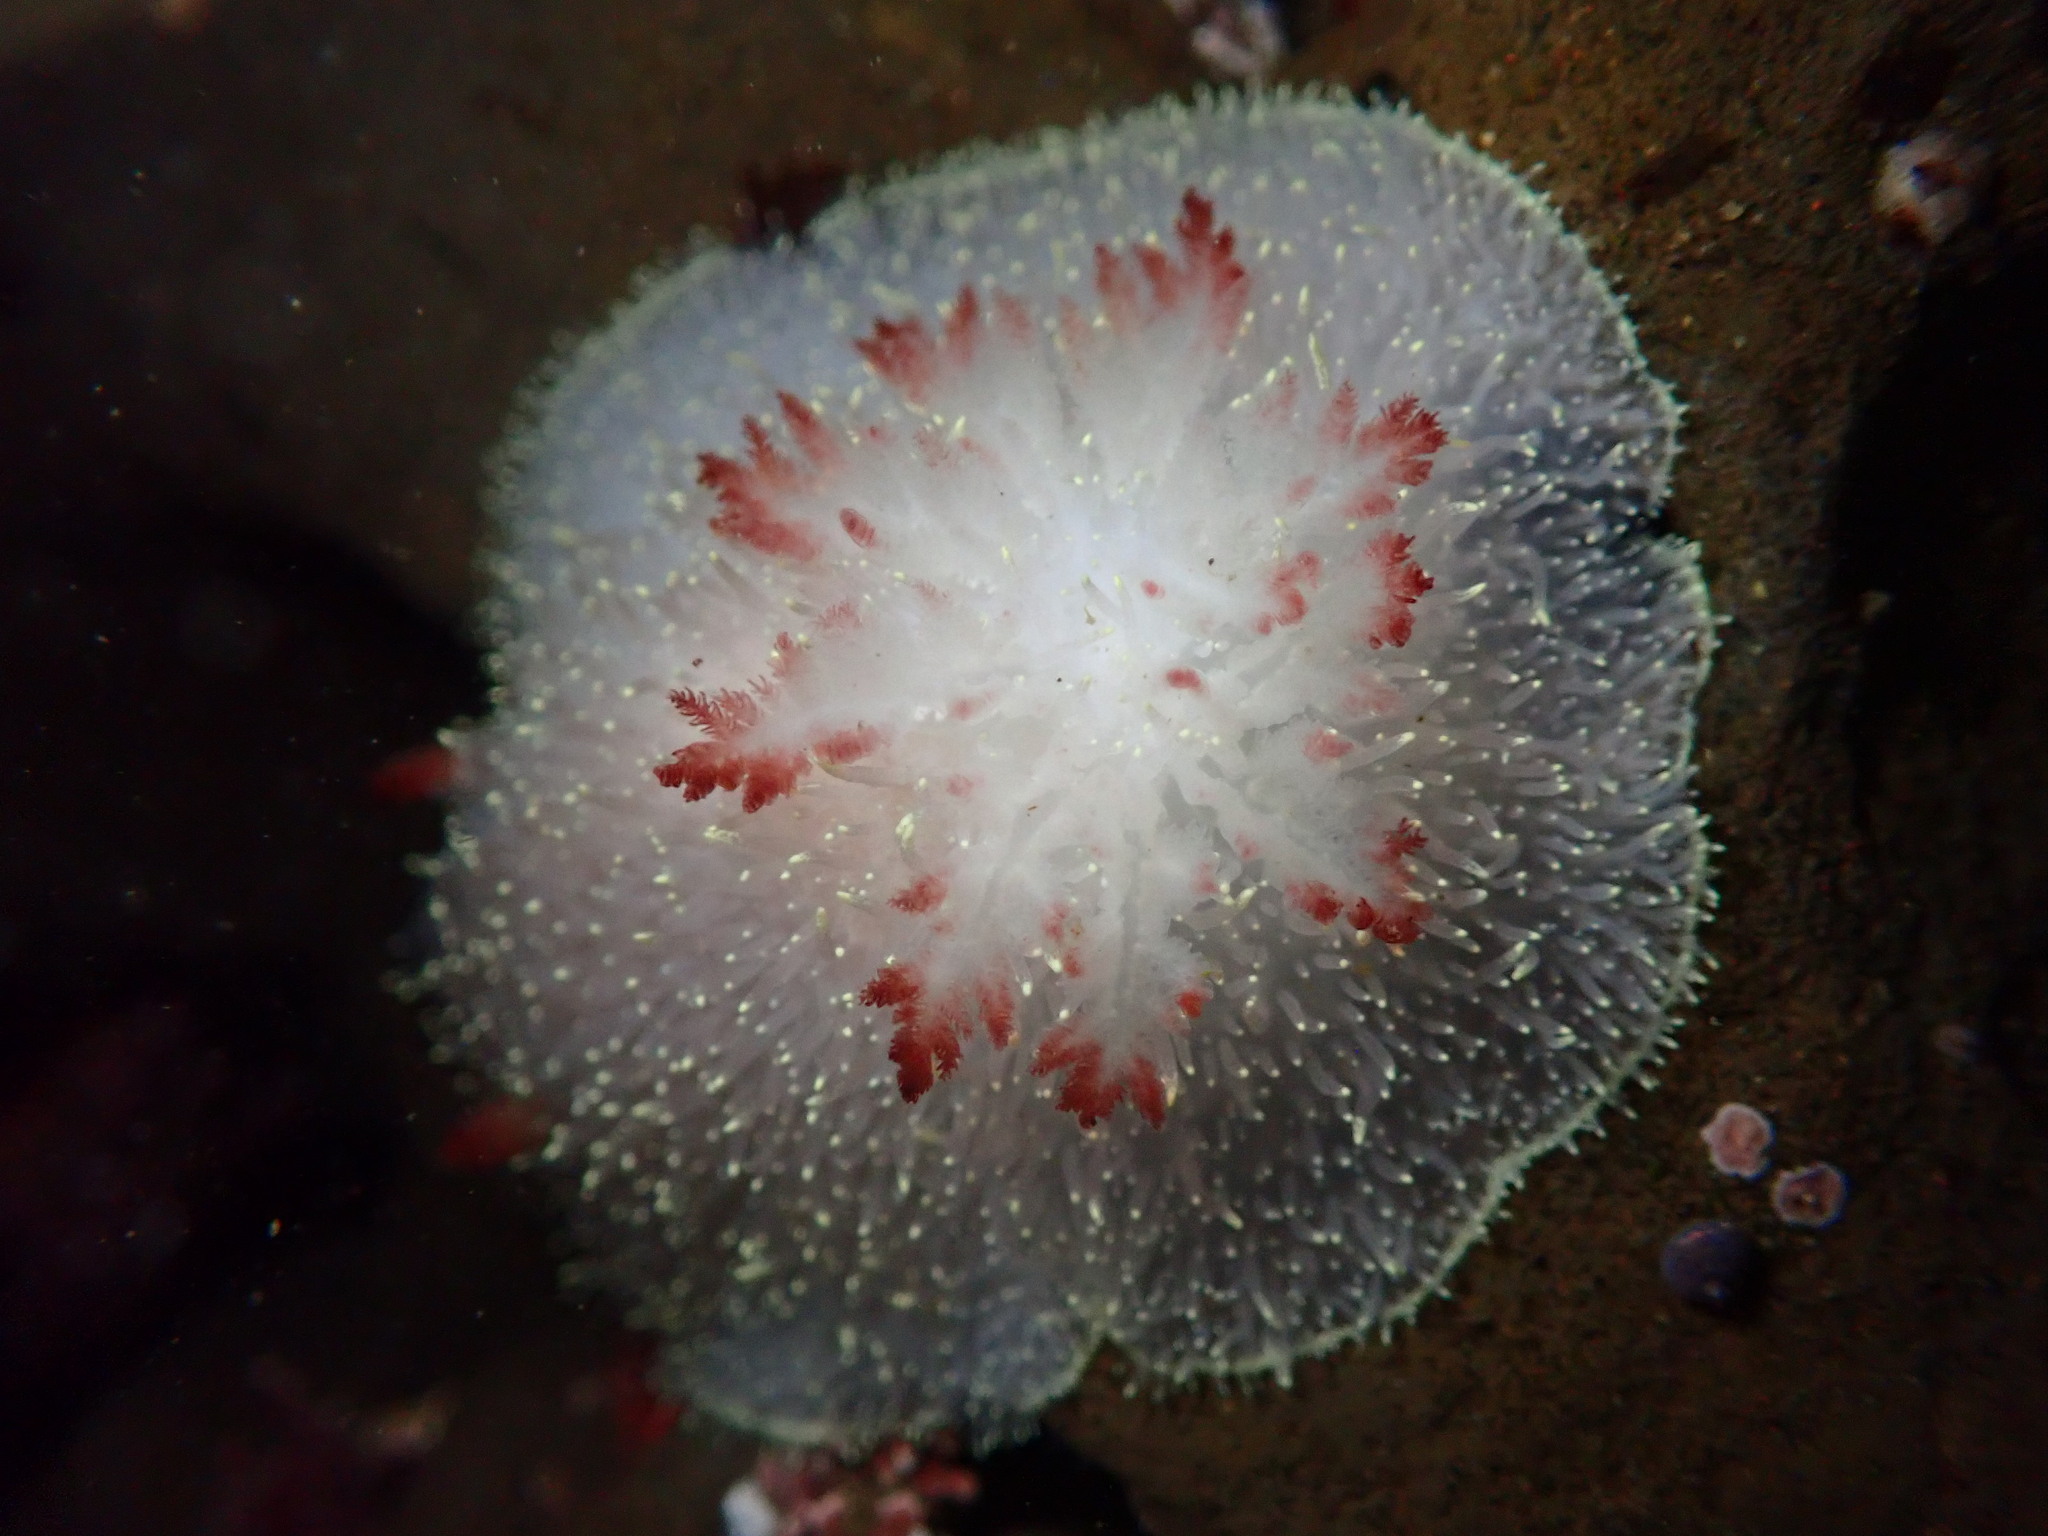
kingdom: Animalia
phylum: Mollusca
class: Gastropoda
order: Nudibranchia
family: Onchidorididae
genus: Acanthodoris
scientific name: Acanthodoris nanaimoensis
